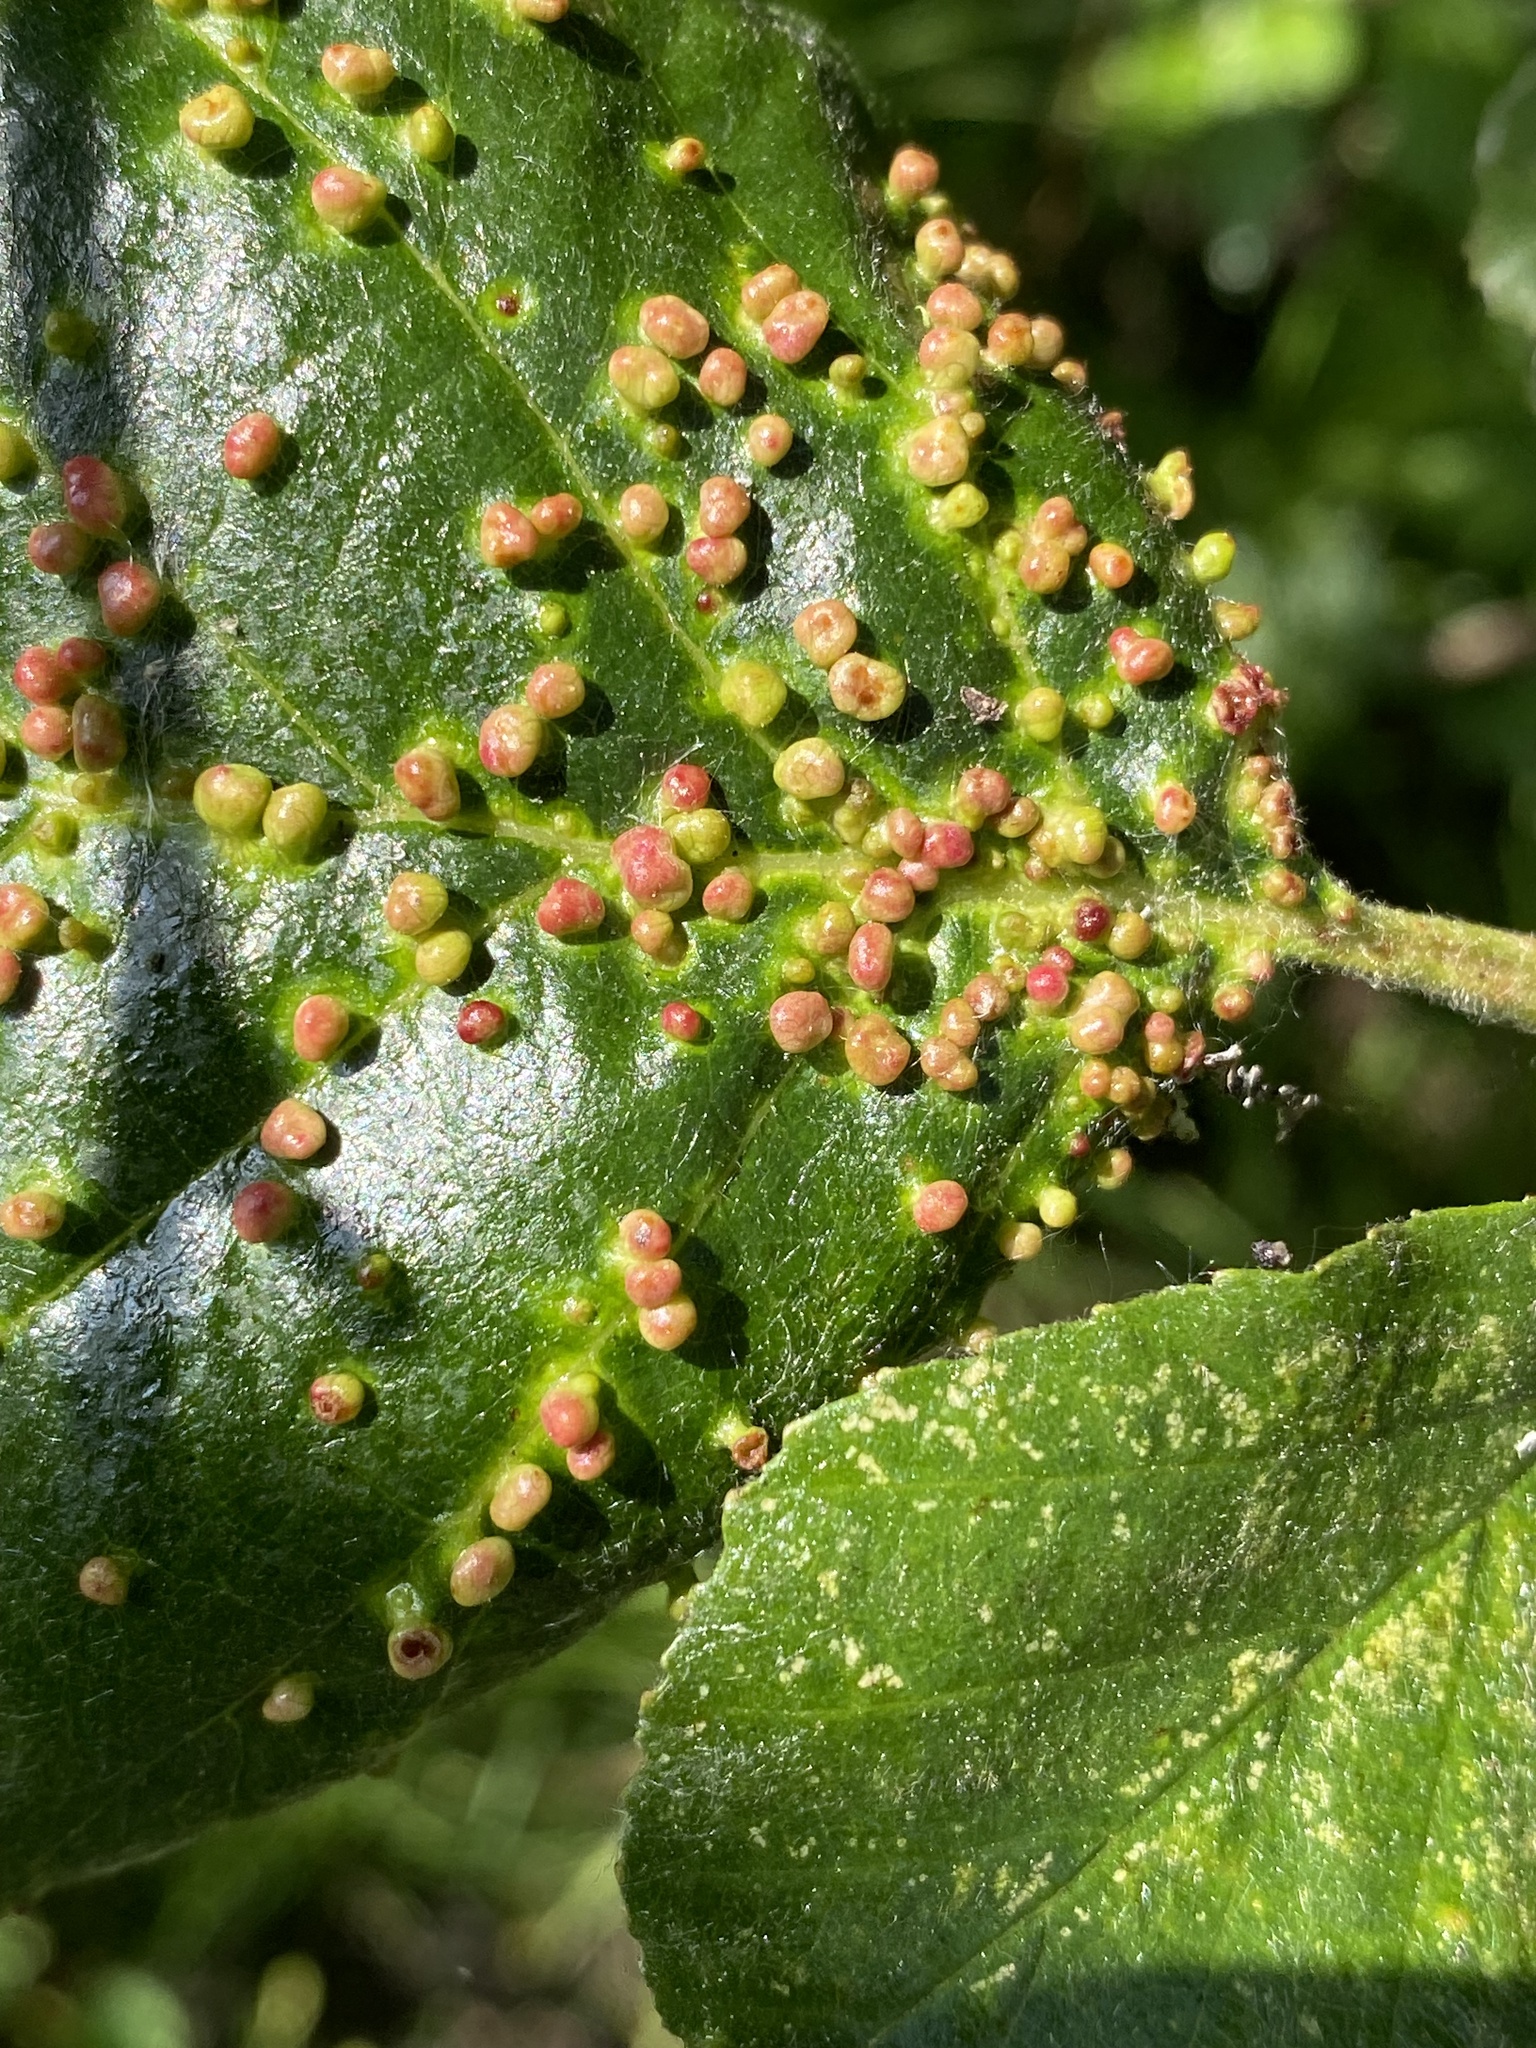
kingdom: Animalia
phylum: Arthropoda
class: Arachnida
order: Trombidiformes
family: Eriophyidae
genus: Eriophyes
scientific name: Eriophyes laevis
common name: Alder leaf gall mite
